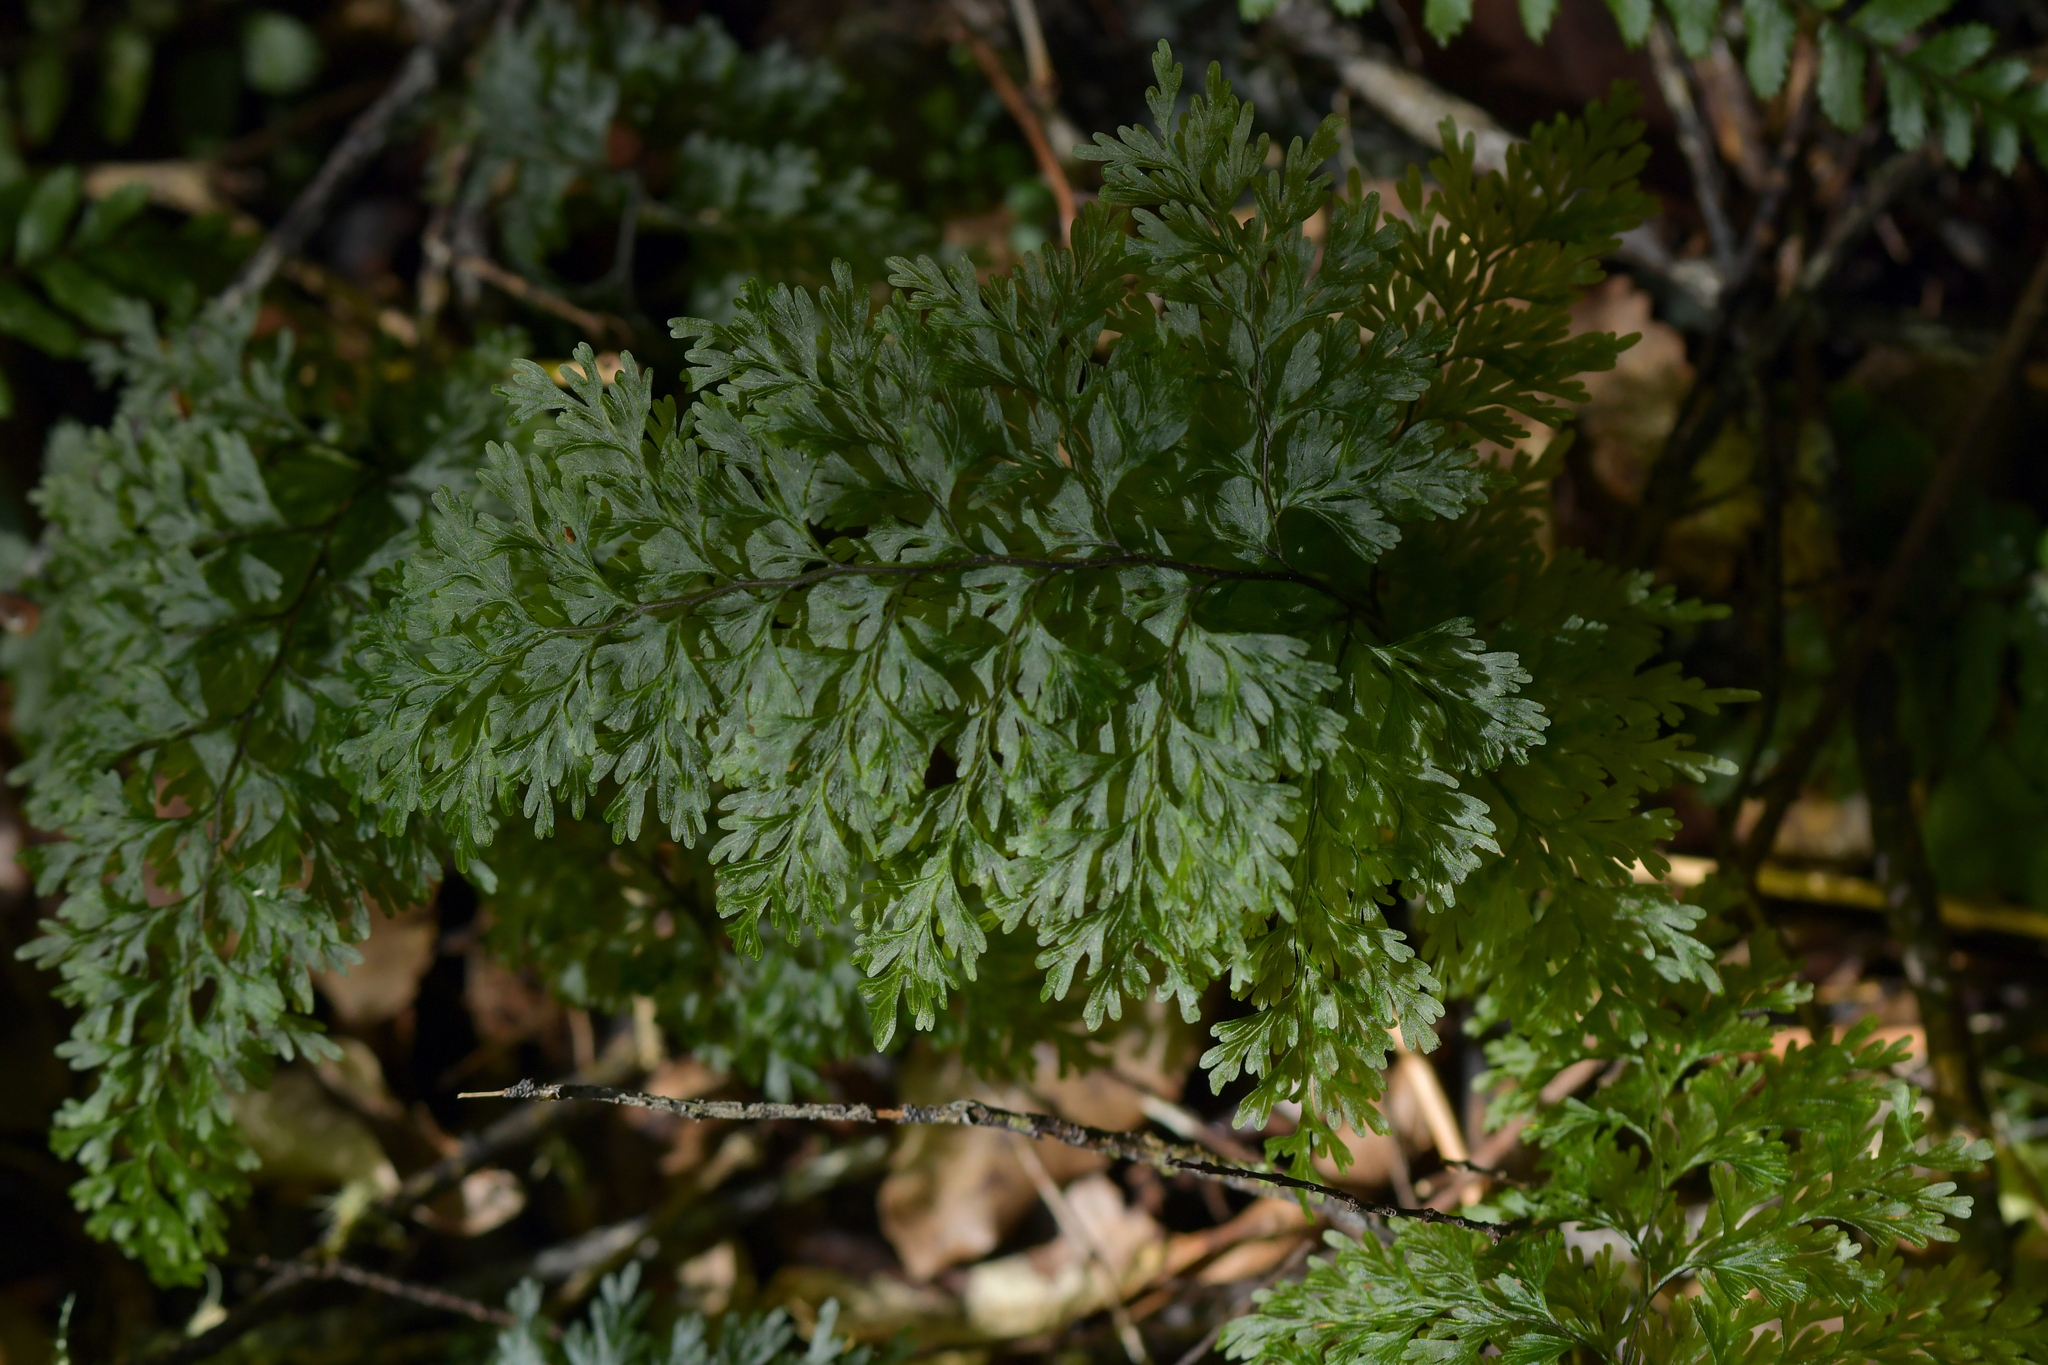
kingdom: Plantae
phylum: Tracheophyta
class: Polypodiopsida
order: Hymenophyllales
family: Hymenophyllaceae
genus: Hymenophyllum
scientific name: Hymenophyllum demissum
